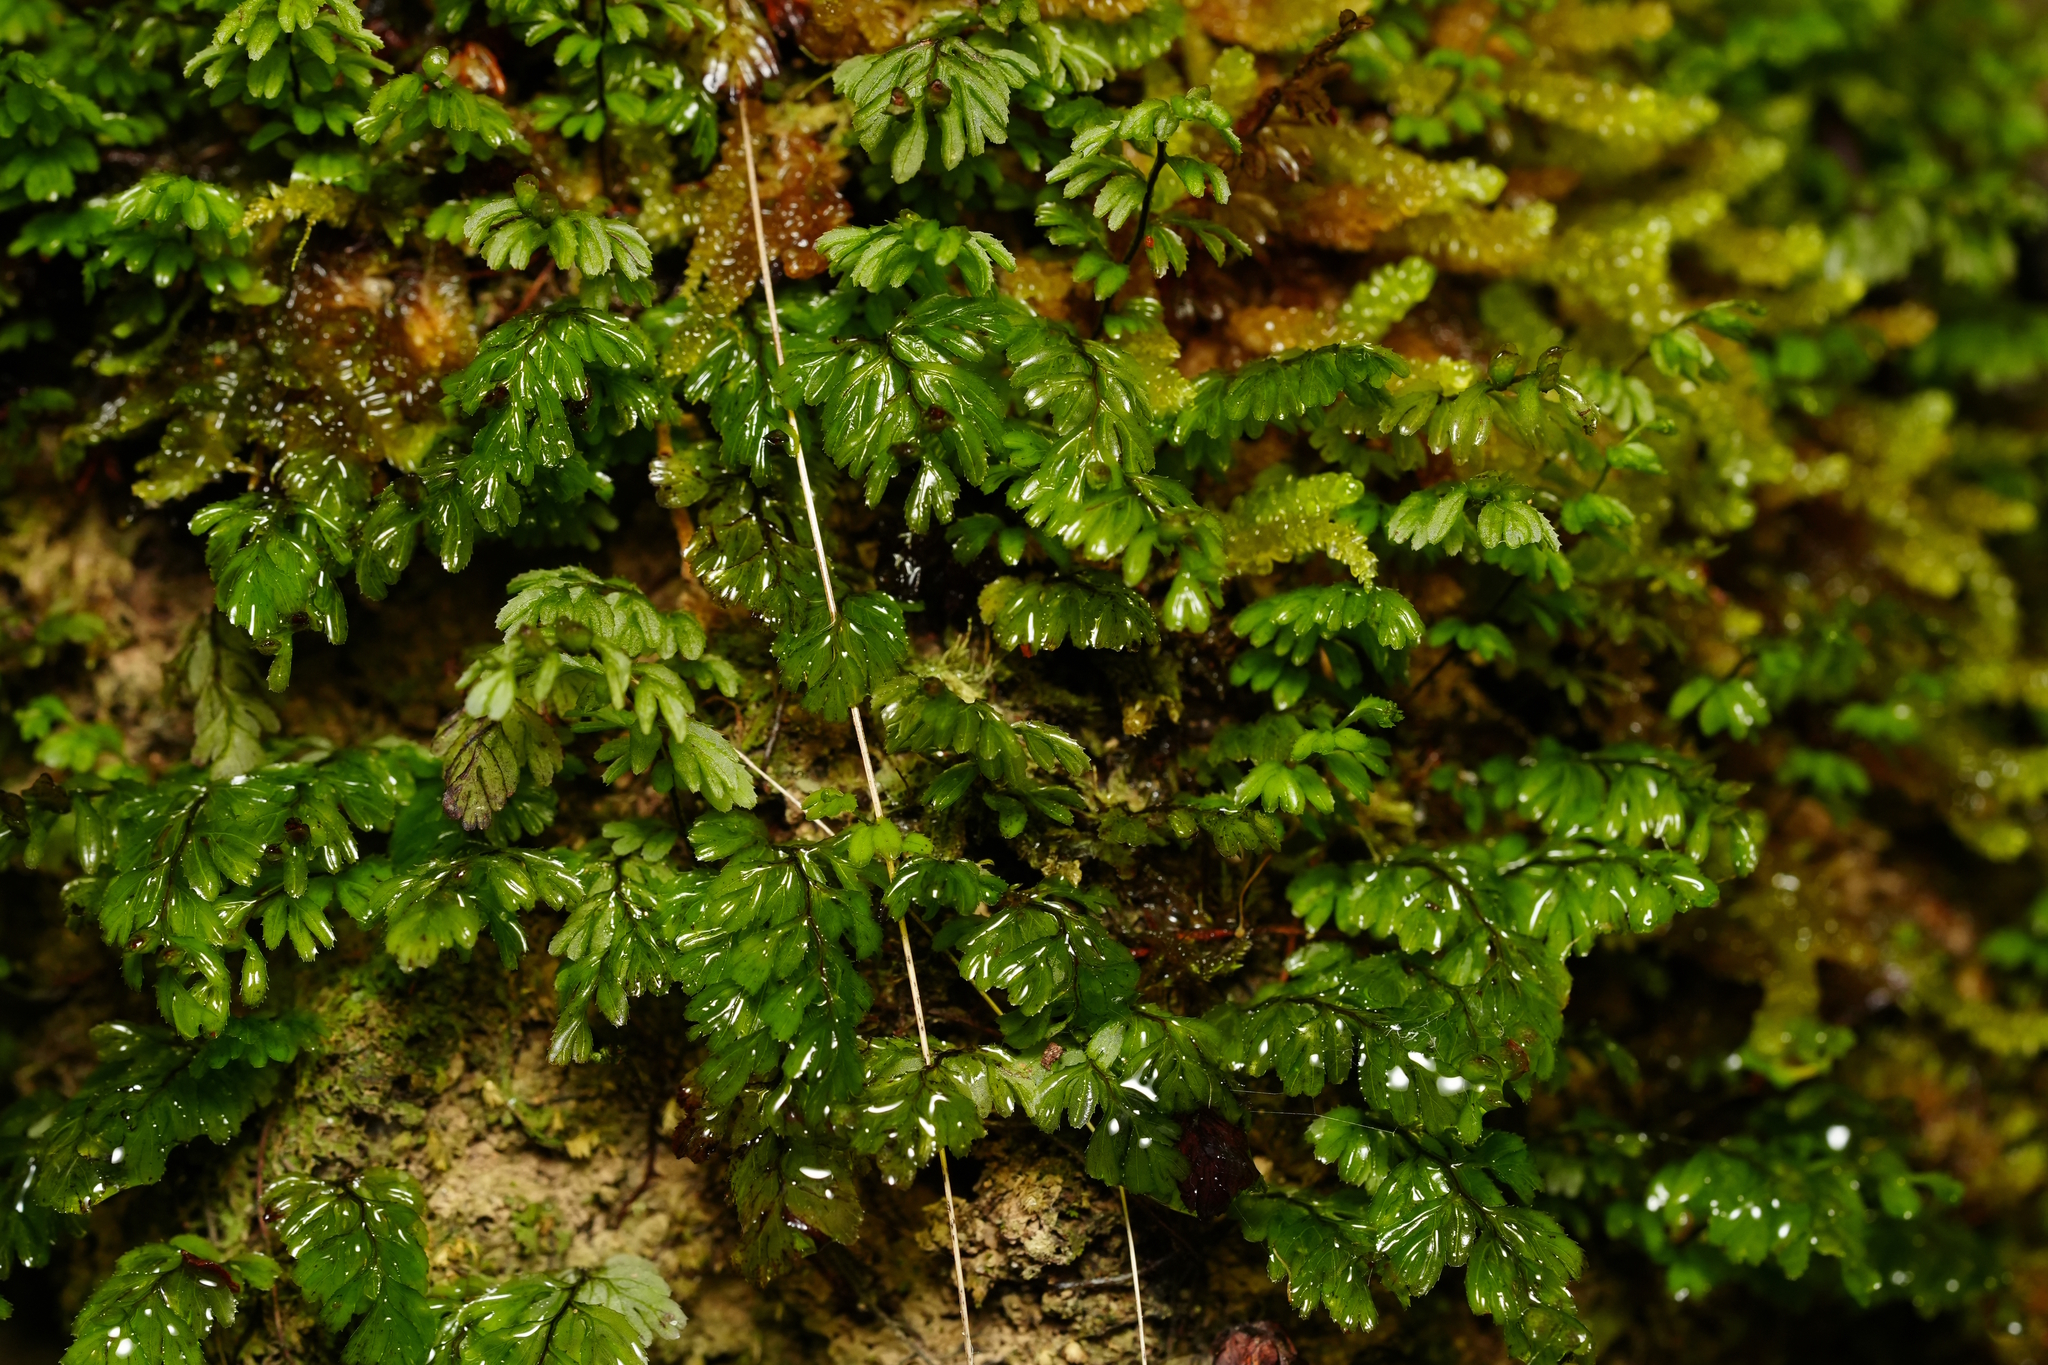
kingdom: Plantae
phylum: Tracheophyta
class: Polypodiopsida
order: Hymenophyllales
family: Hymenophyllaceae
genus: Hymenophyllum
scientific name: Hymenophyllum peltatum
